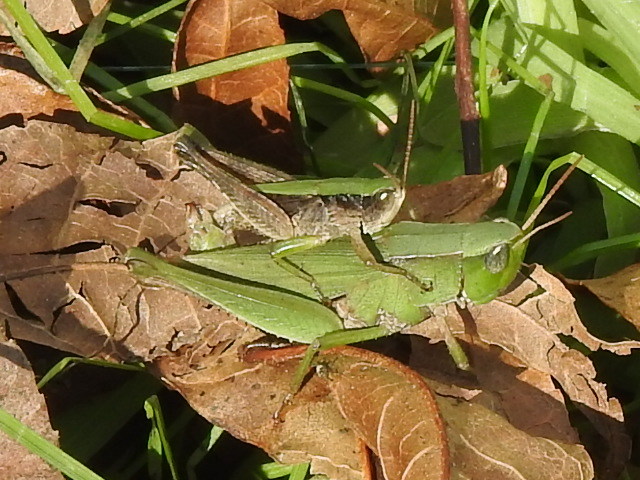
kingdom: Animalia
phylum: Arthropoda
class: Insecta
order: Orthoptera
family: Acrididae
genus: Dichromorpha
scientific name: Dichromorpha viridis
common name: Short-winged green grasshopper
